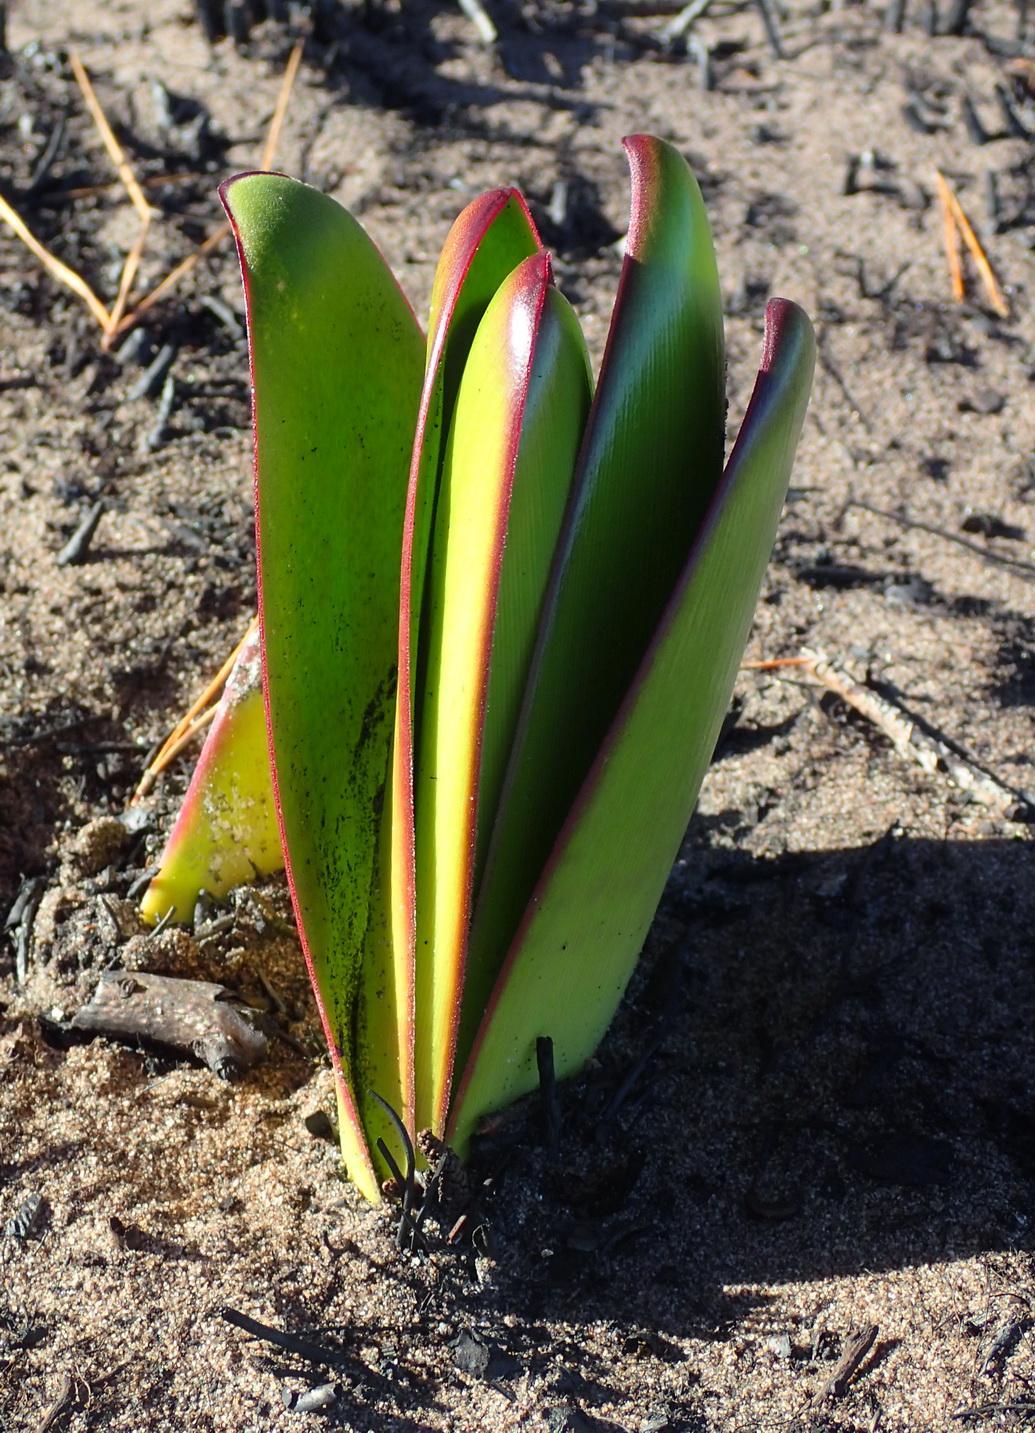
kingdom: Plantae
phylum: Tracheophyta
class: Liliopsida
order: Asparagales
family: Amaryllidaceae
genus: Brunsvigia
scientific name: Brunsvigia orientalis
